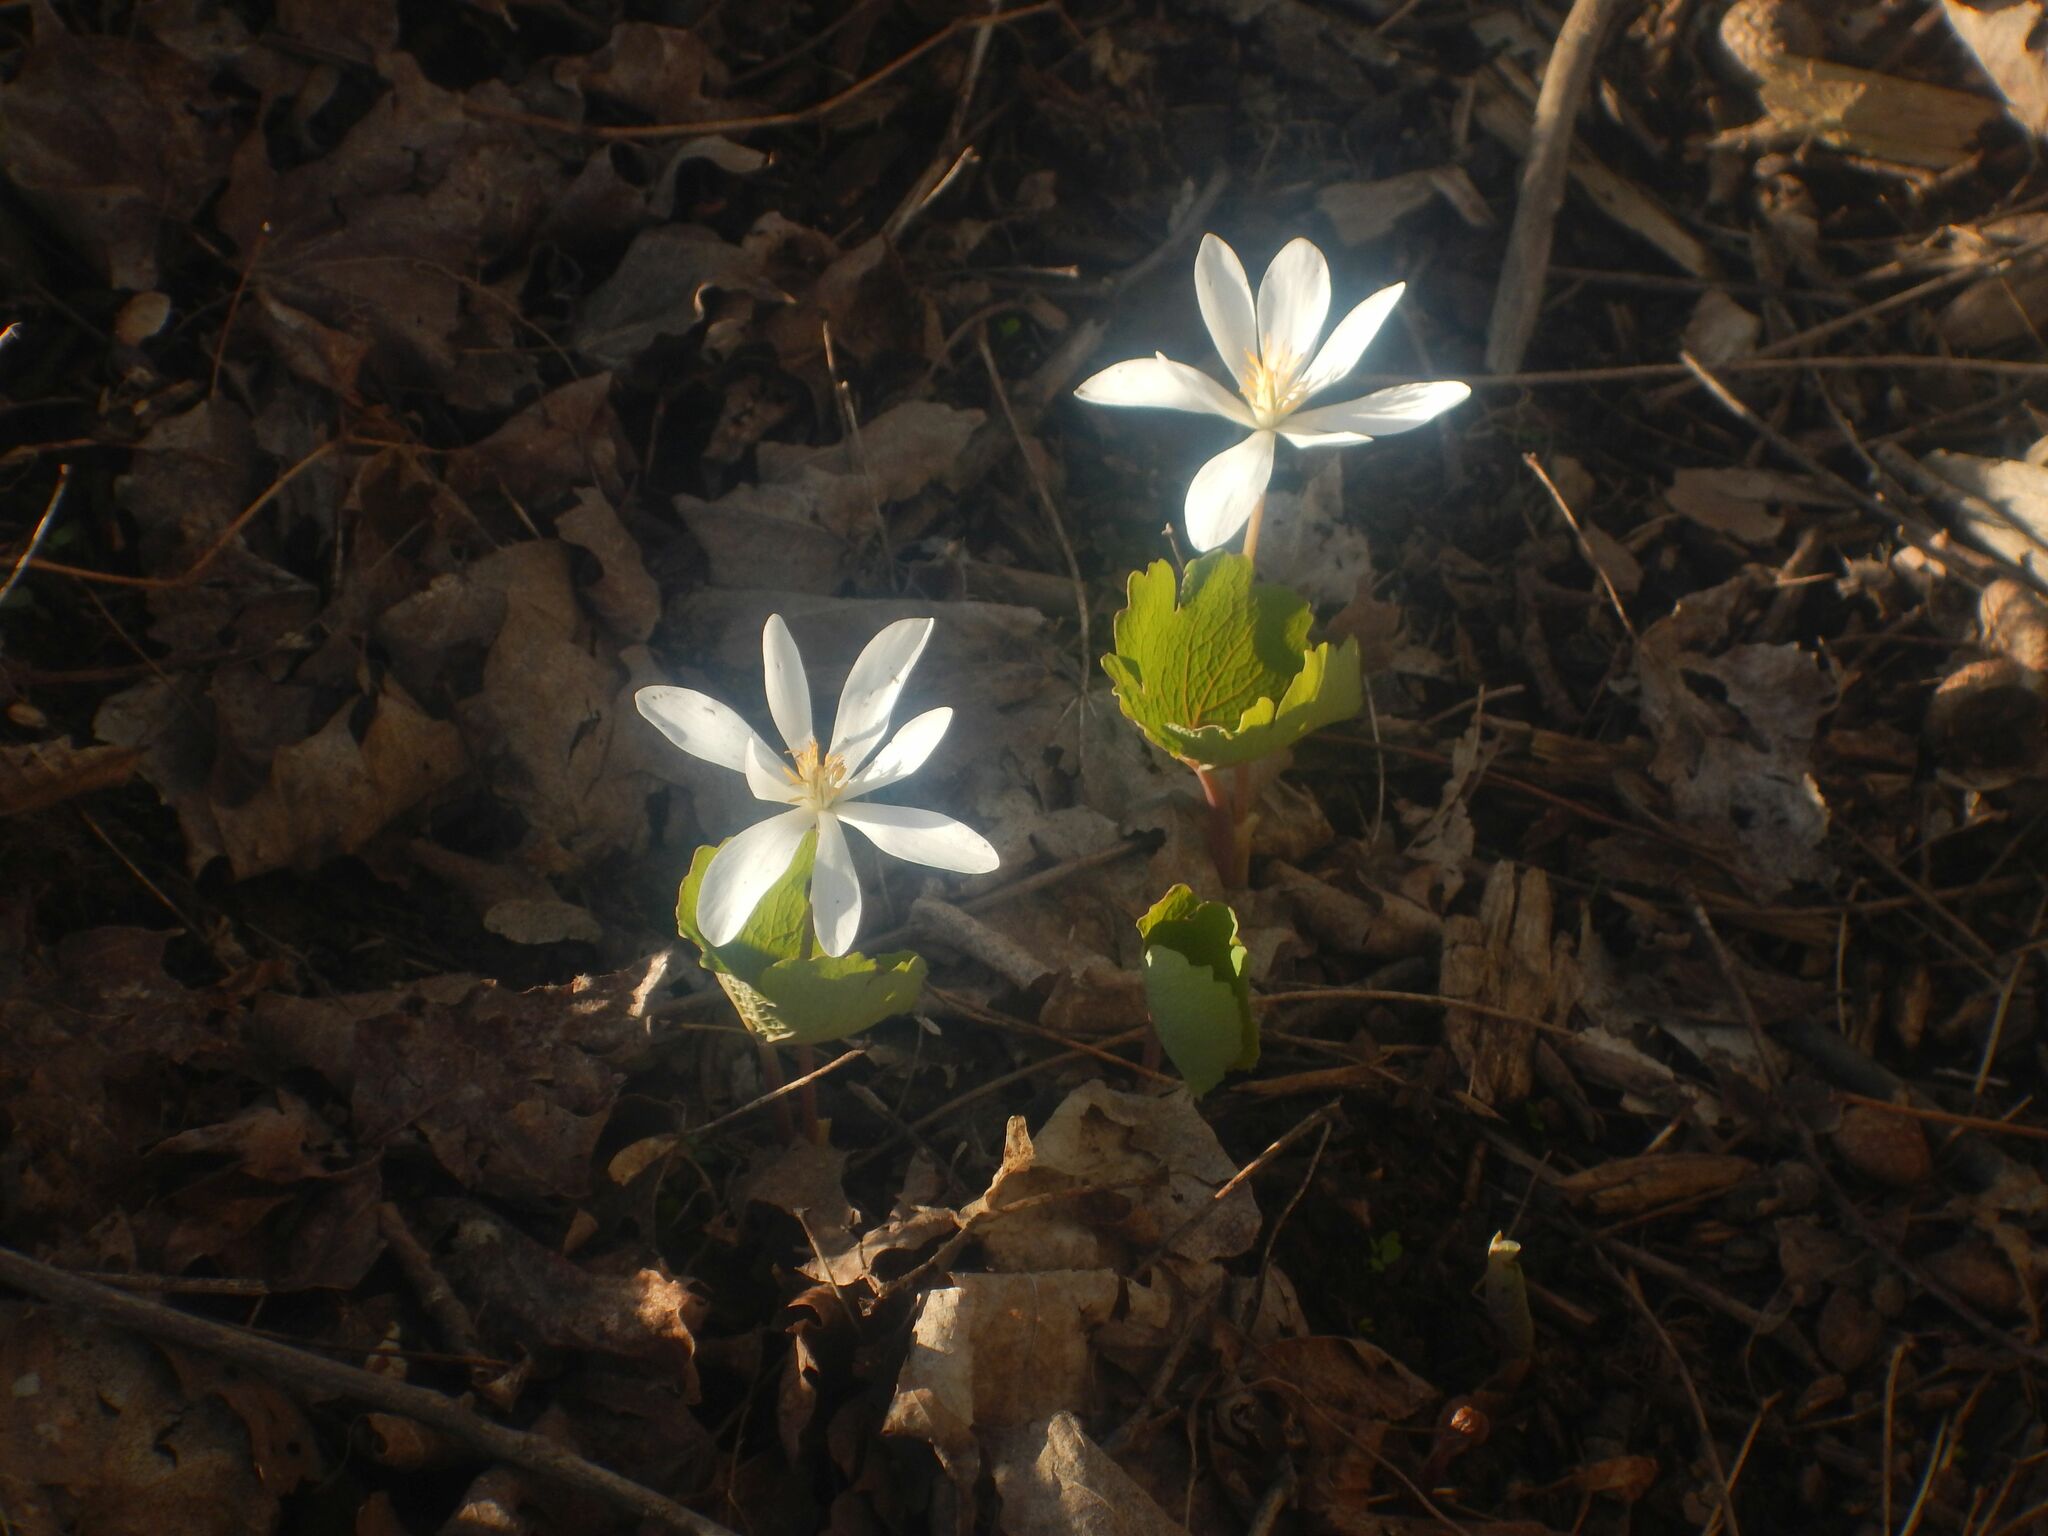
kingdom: Plantae
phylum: Tracheophyta
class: Magnoliopsida
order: Ranunculales
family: Papaveraceae
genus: Sanguinaria
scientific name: Sanguinaria canadensis
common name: Bloodroot
